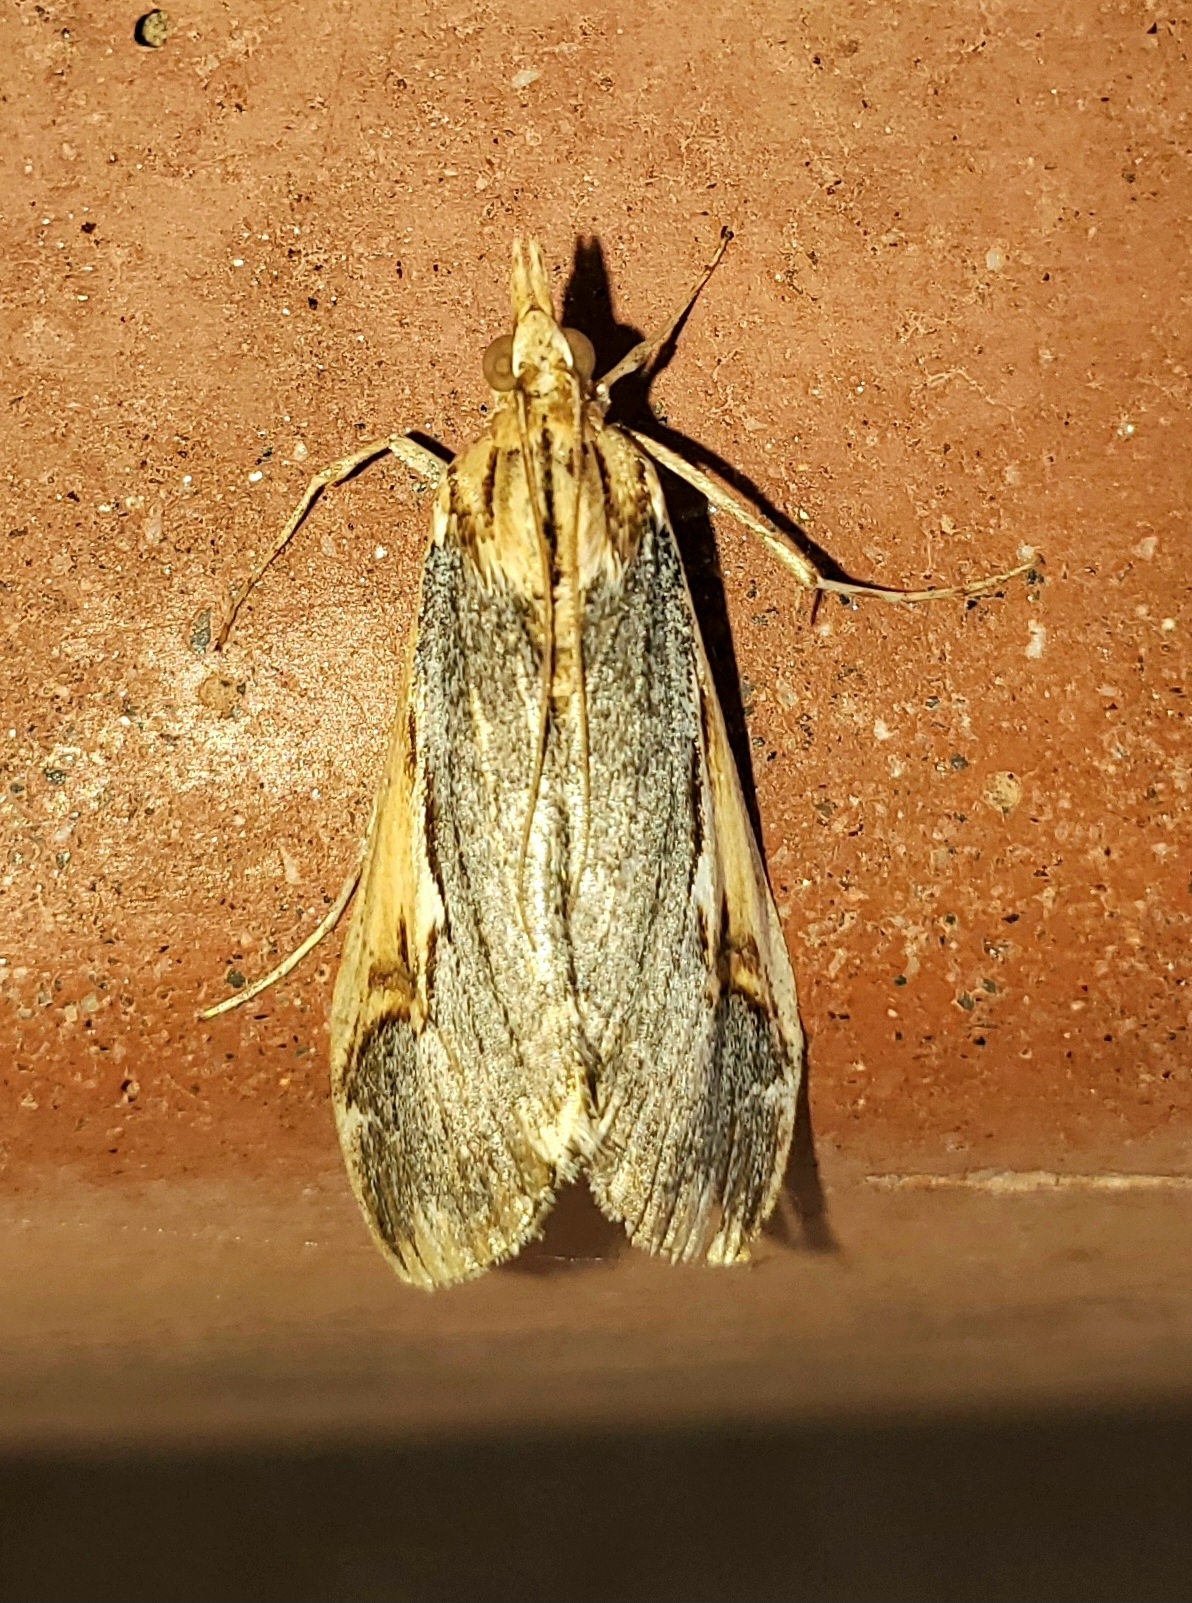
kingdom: Animalia
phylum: Arthropoda
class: Insecta
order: Lepidoptera
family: Crambidae
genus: Loxostege
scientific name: Loxostege albiceralis
